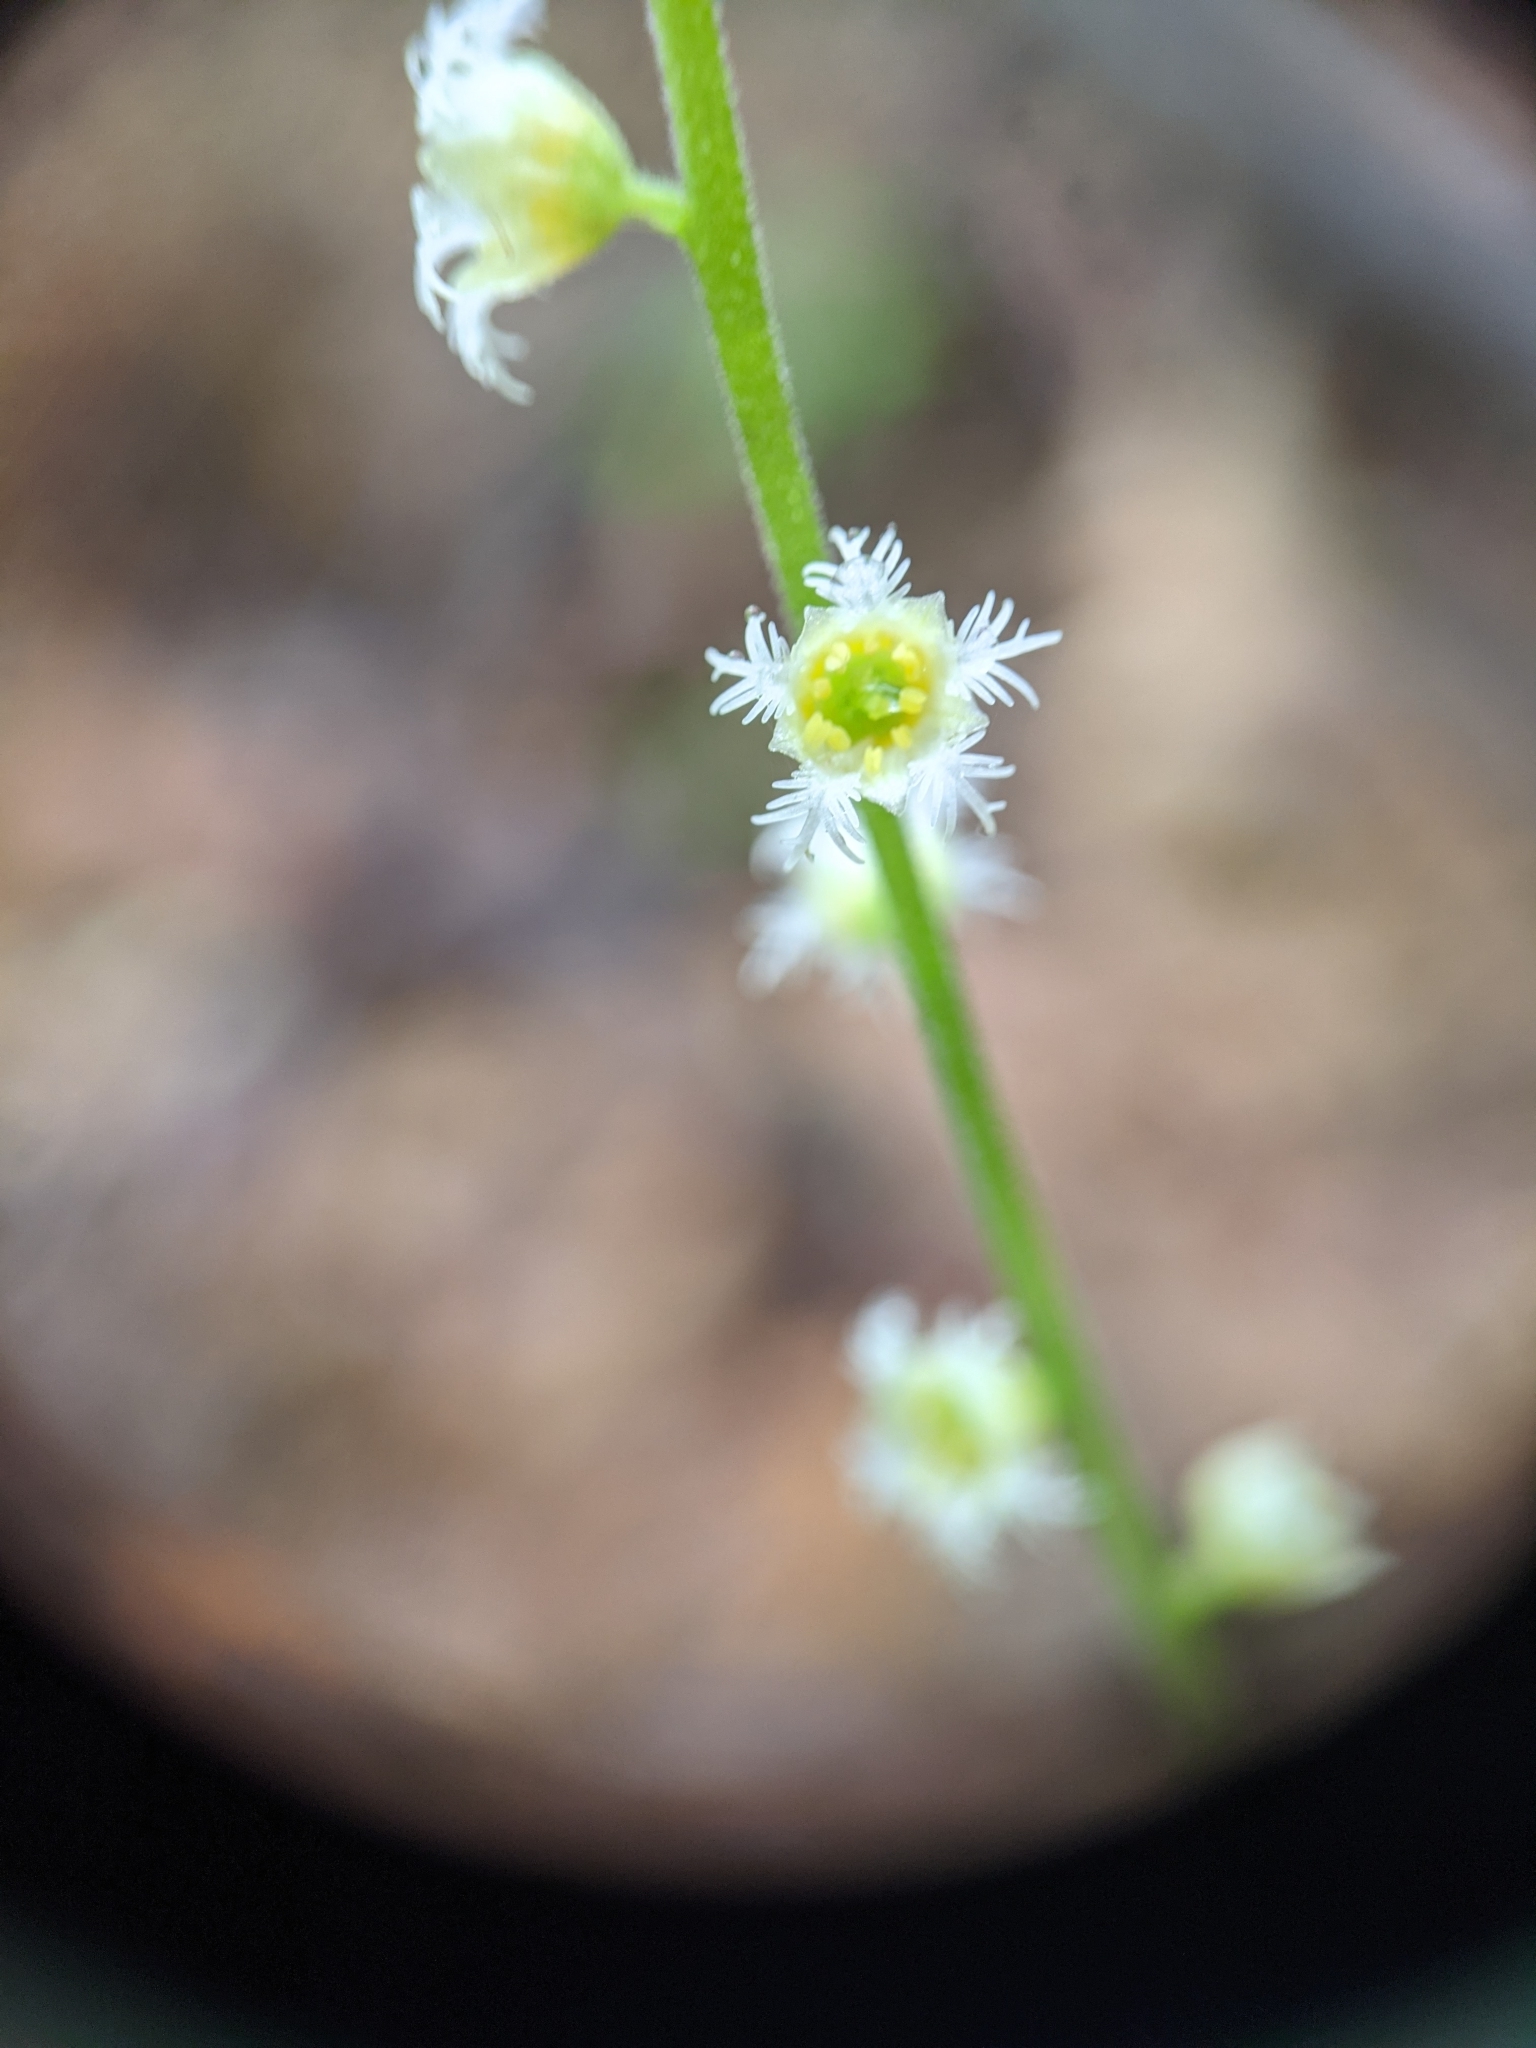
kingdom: Plantae
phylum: Tracheophyta
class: Magnoliopsida
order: Saxifragales
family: Saxifragaceae
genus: Mitella
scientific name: Mitella diphylla
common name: Coolwort
